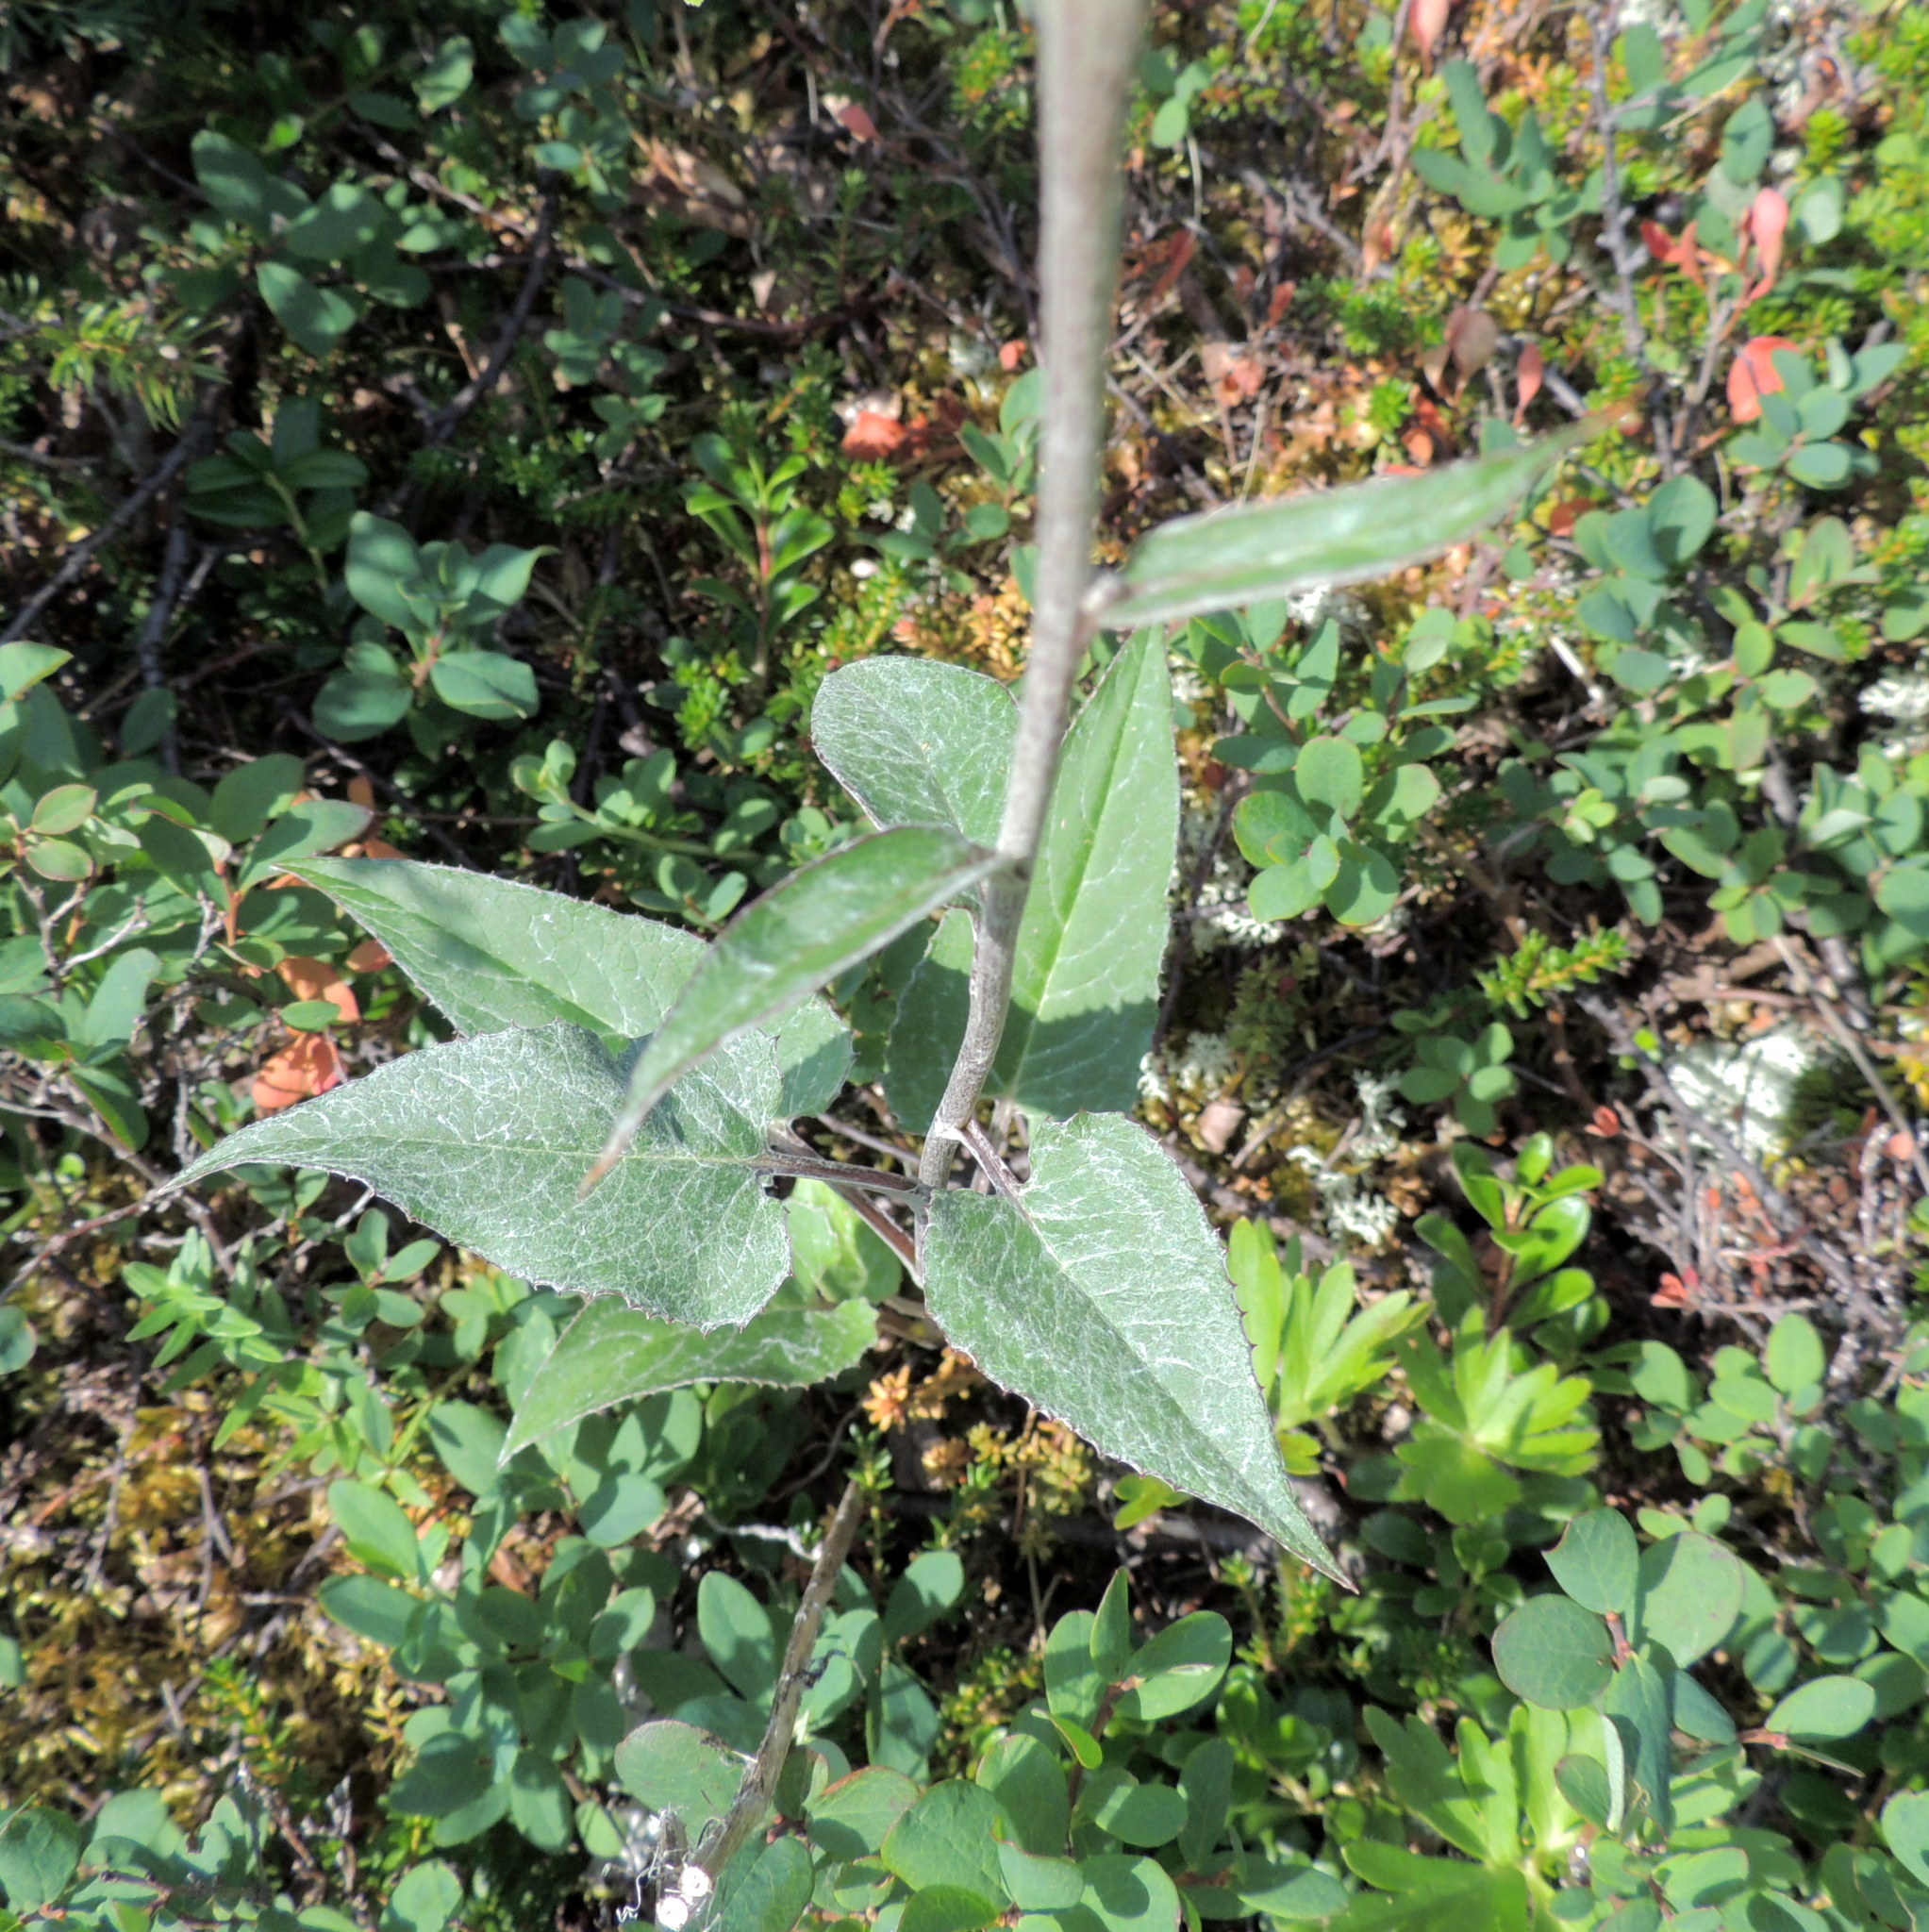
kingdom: Plantae
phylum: Tracheophyta
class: Magnoliopsida
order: Asterales
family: Asteraceae
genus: Saussurea
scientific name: Saussurea controversa
